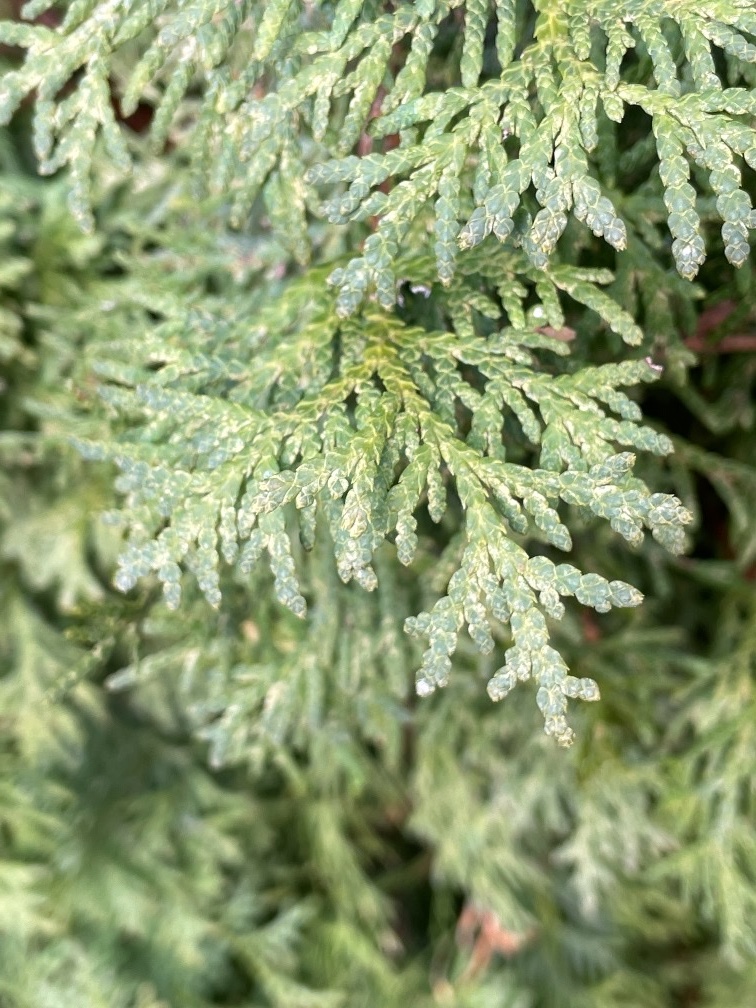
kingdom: Plantae
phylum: Tracheophyta
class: Pinopsida
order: Pinales
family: Cupressaceae
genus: Thuja
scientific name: Thuja plicata
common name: Western red-cedar
